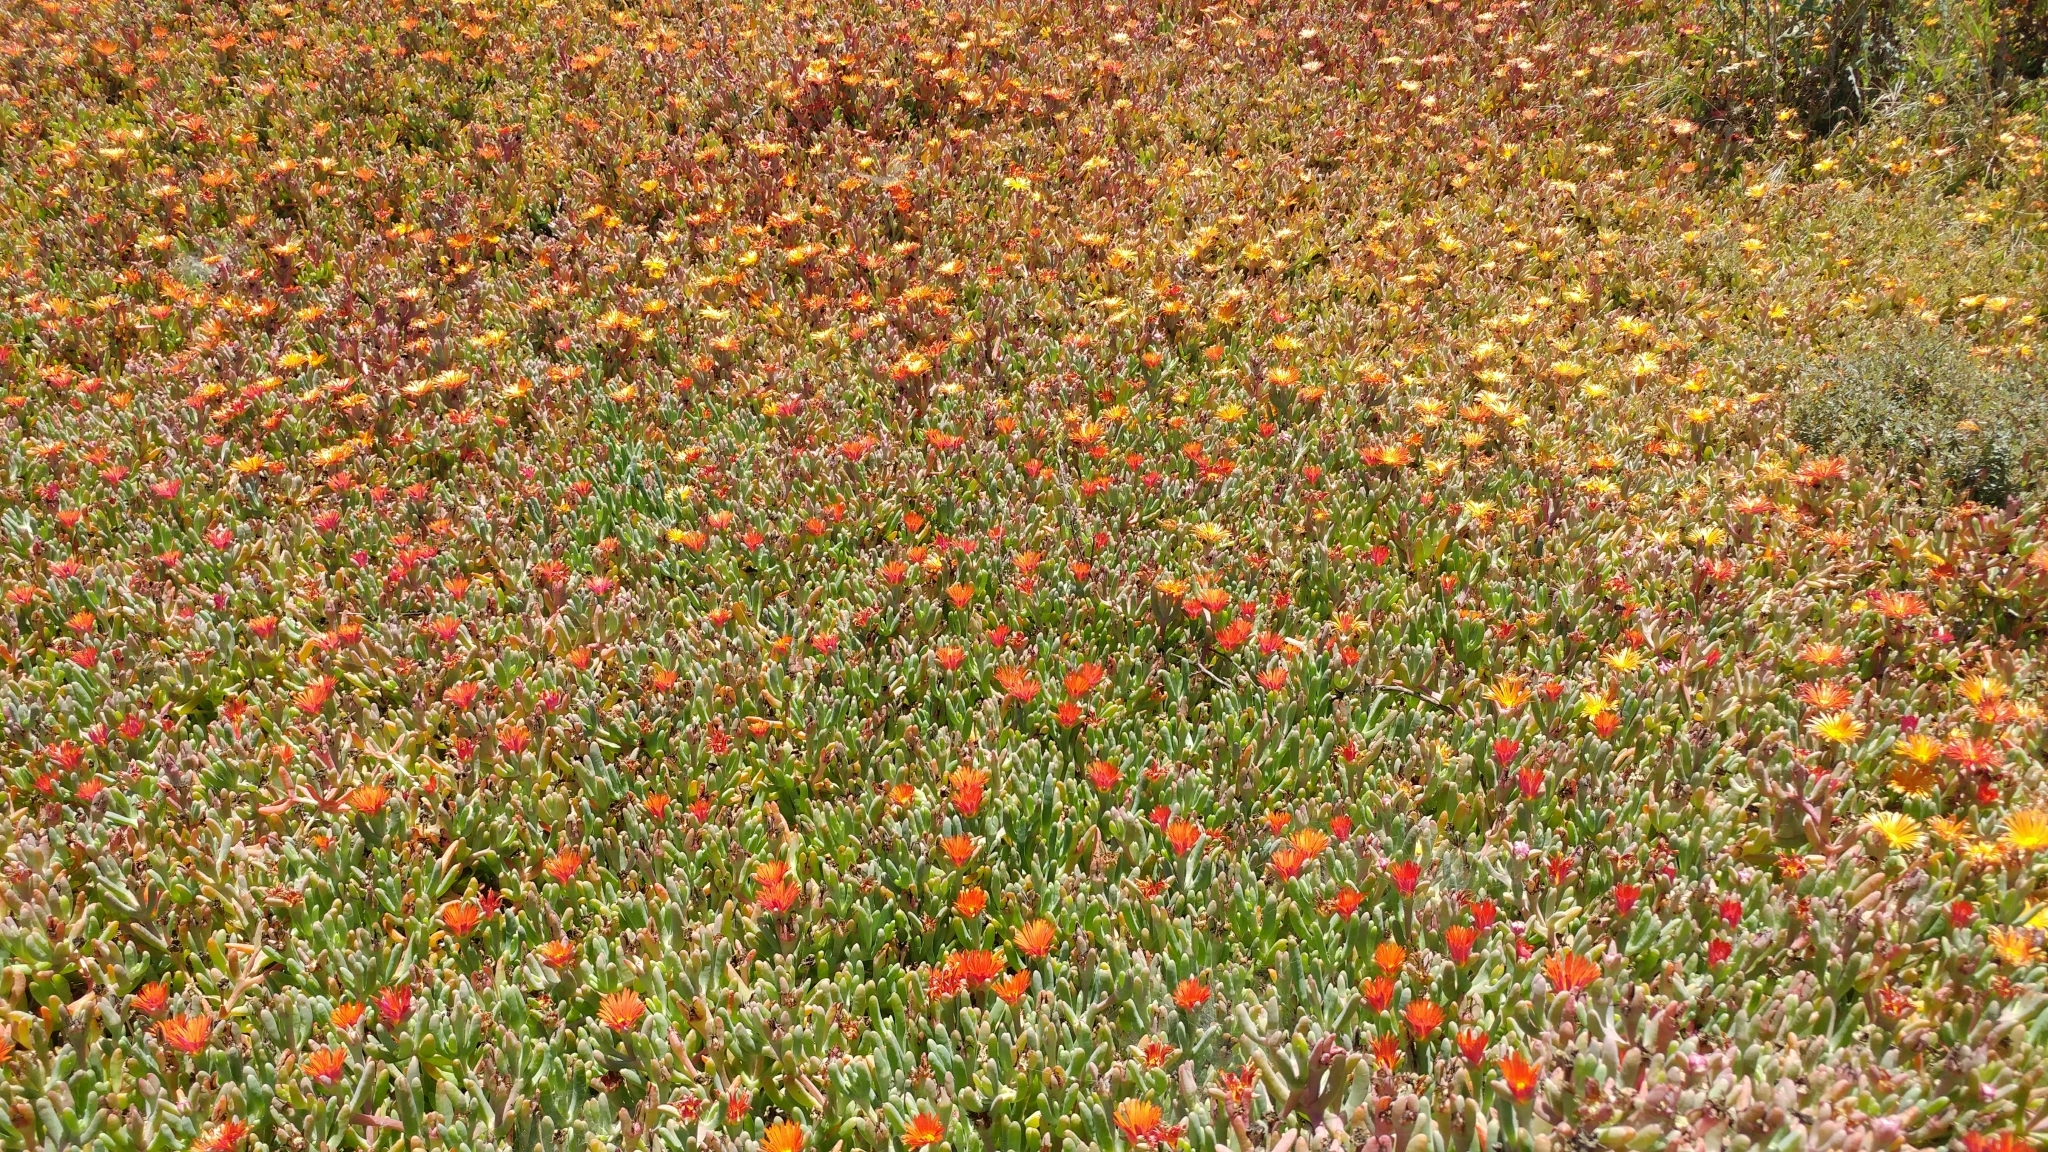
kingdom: Plantae
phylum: Tracheophyta
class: Magnoliopsida
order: Caryophyllales
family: Aizoaceae
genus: Malephora
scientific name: Malephora crocea
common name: Coppery mesemb
